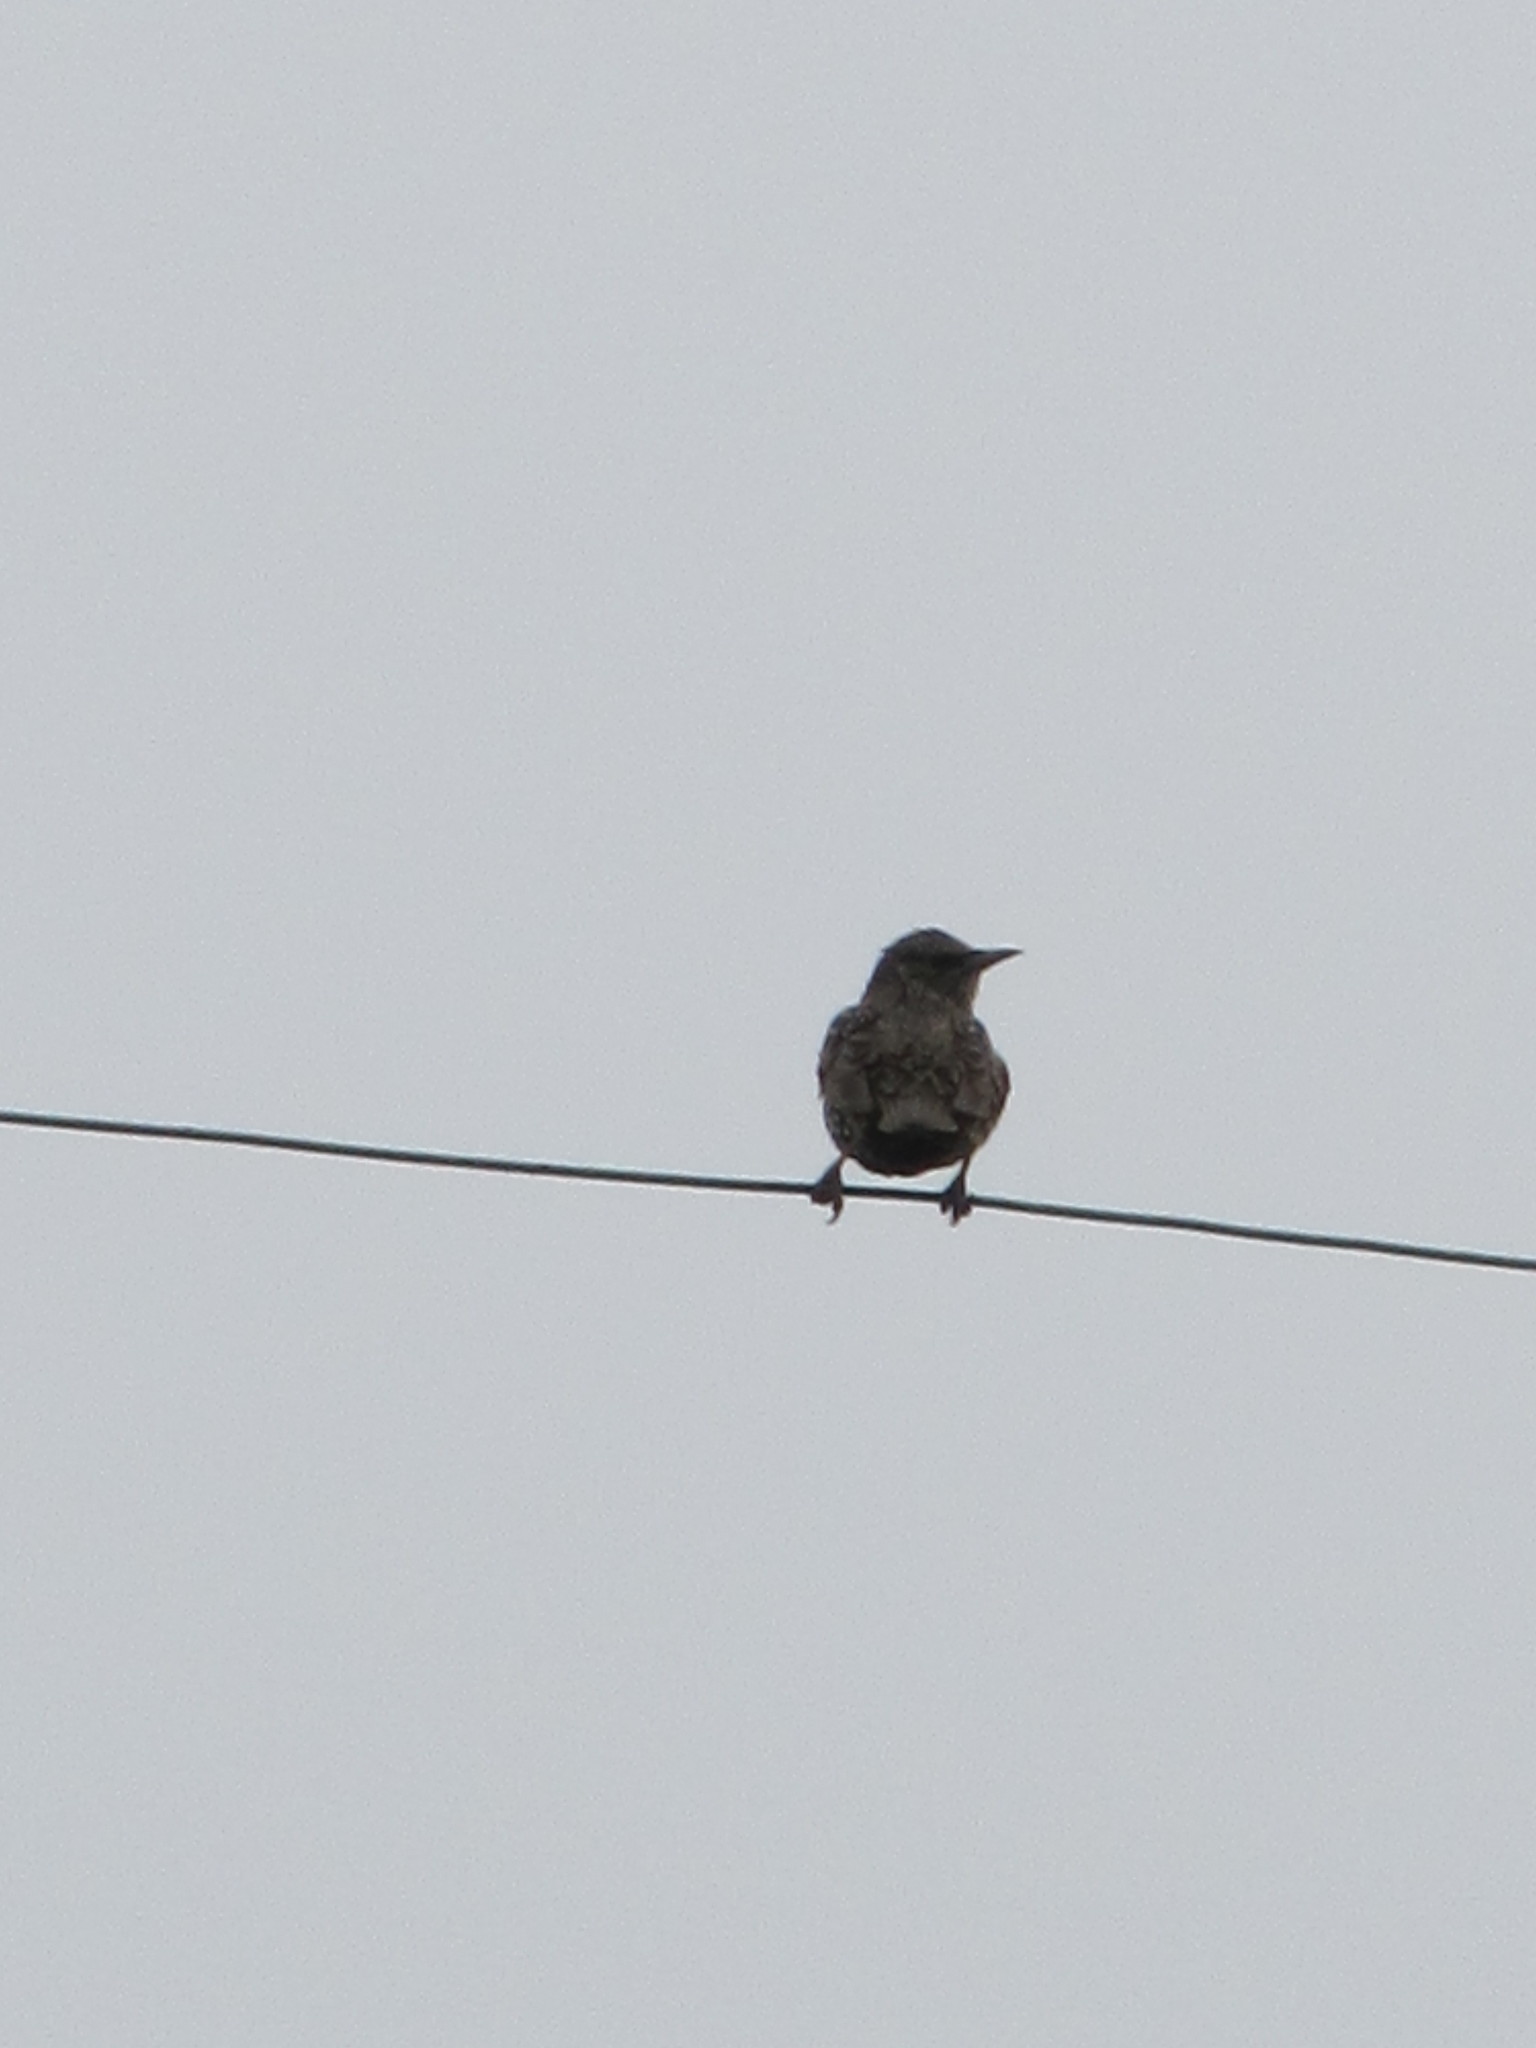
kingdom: Animalia
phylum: Chordata
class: Aves
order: Passeriformes
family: Sturnidae
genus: Sturnus
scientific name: Sturnus vulgaris
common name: Common starling
